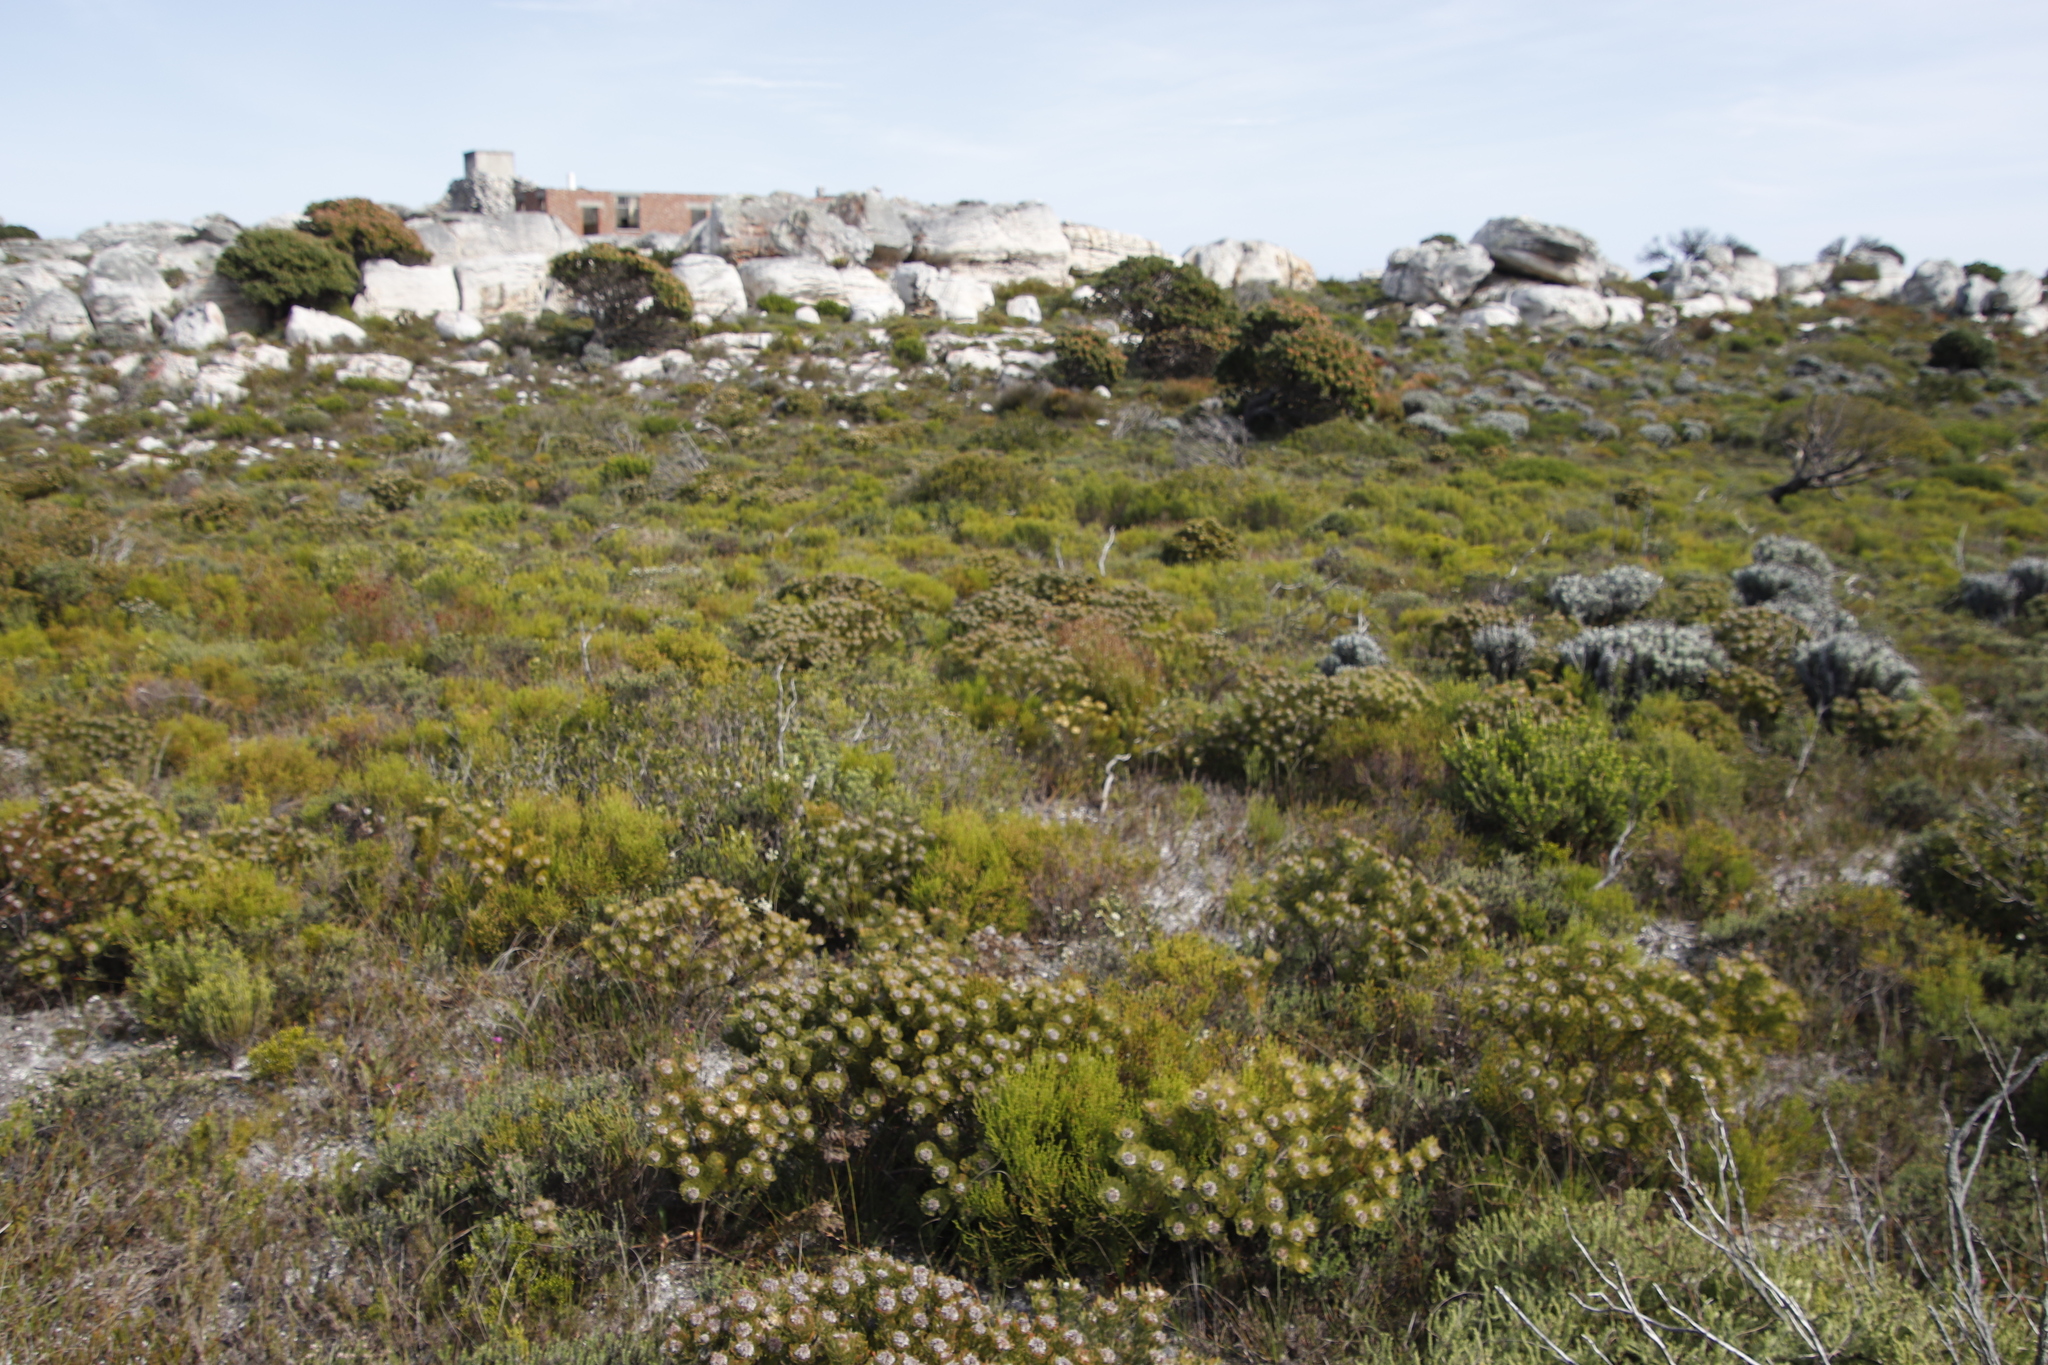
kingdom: Plantae
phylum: Tracheophyta
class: Magnoliopsida
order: Proteales
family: Proteaceae
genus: Serruria
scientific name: Serruria villosa
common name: Golden spiderhead
